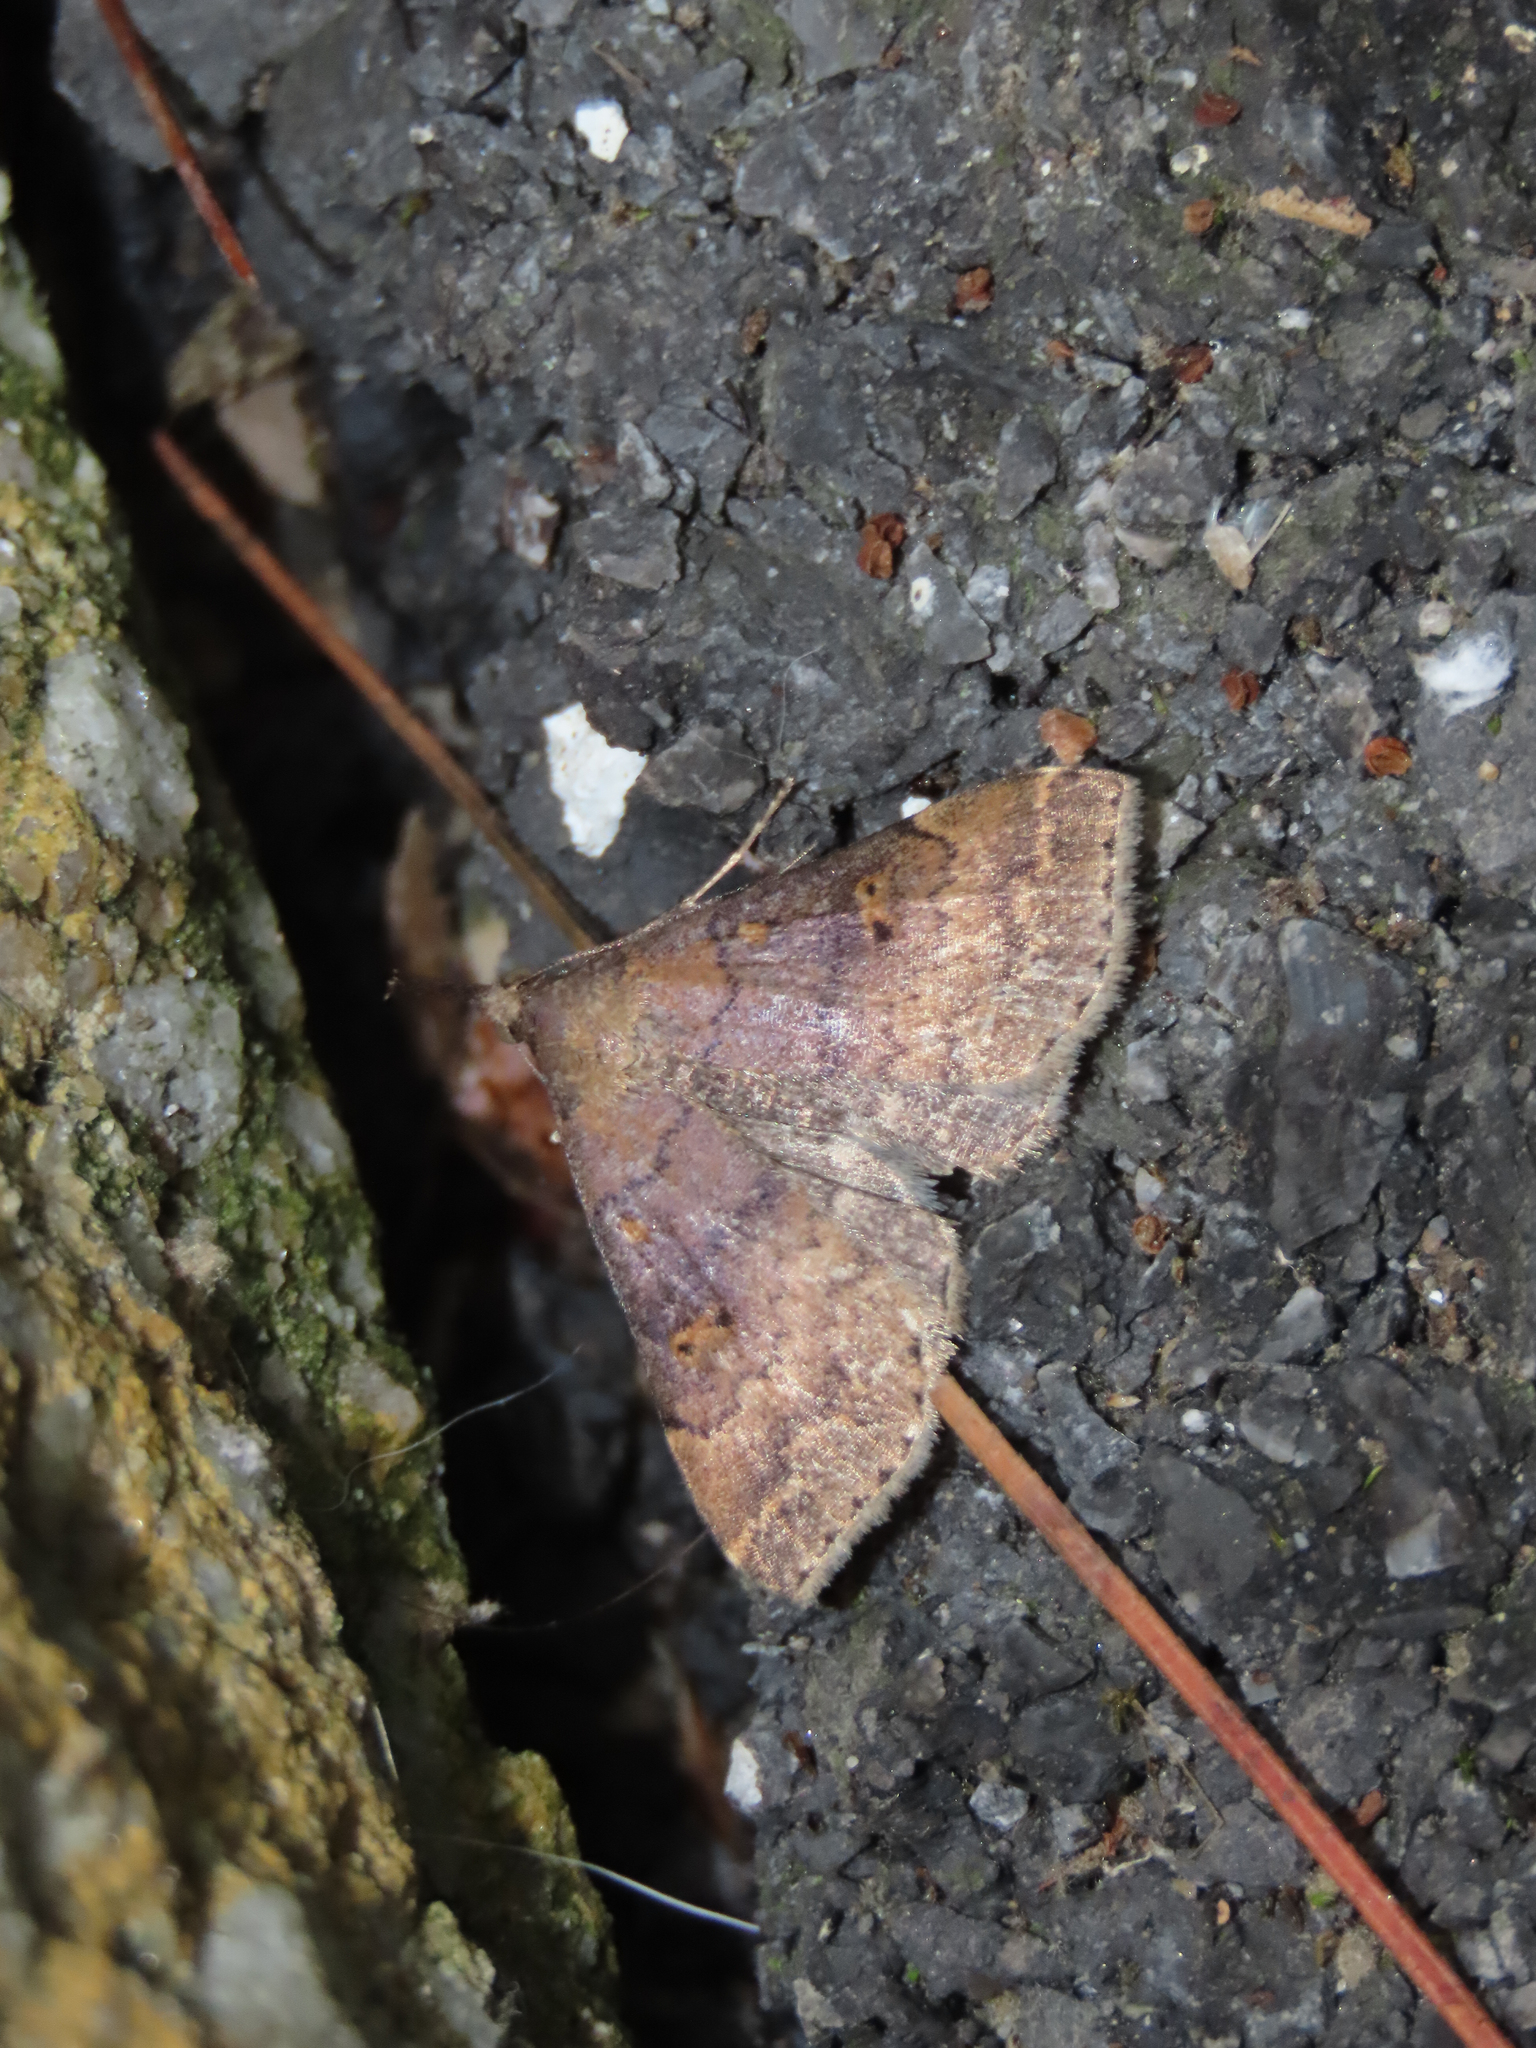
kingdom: Animalia
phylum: Arthropoda
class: Insecta
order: Lepidoptera
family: Erebidae
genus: Renia
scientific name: Renia factiosalis
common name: Sociable renia moth
